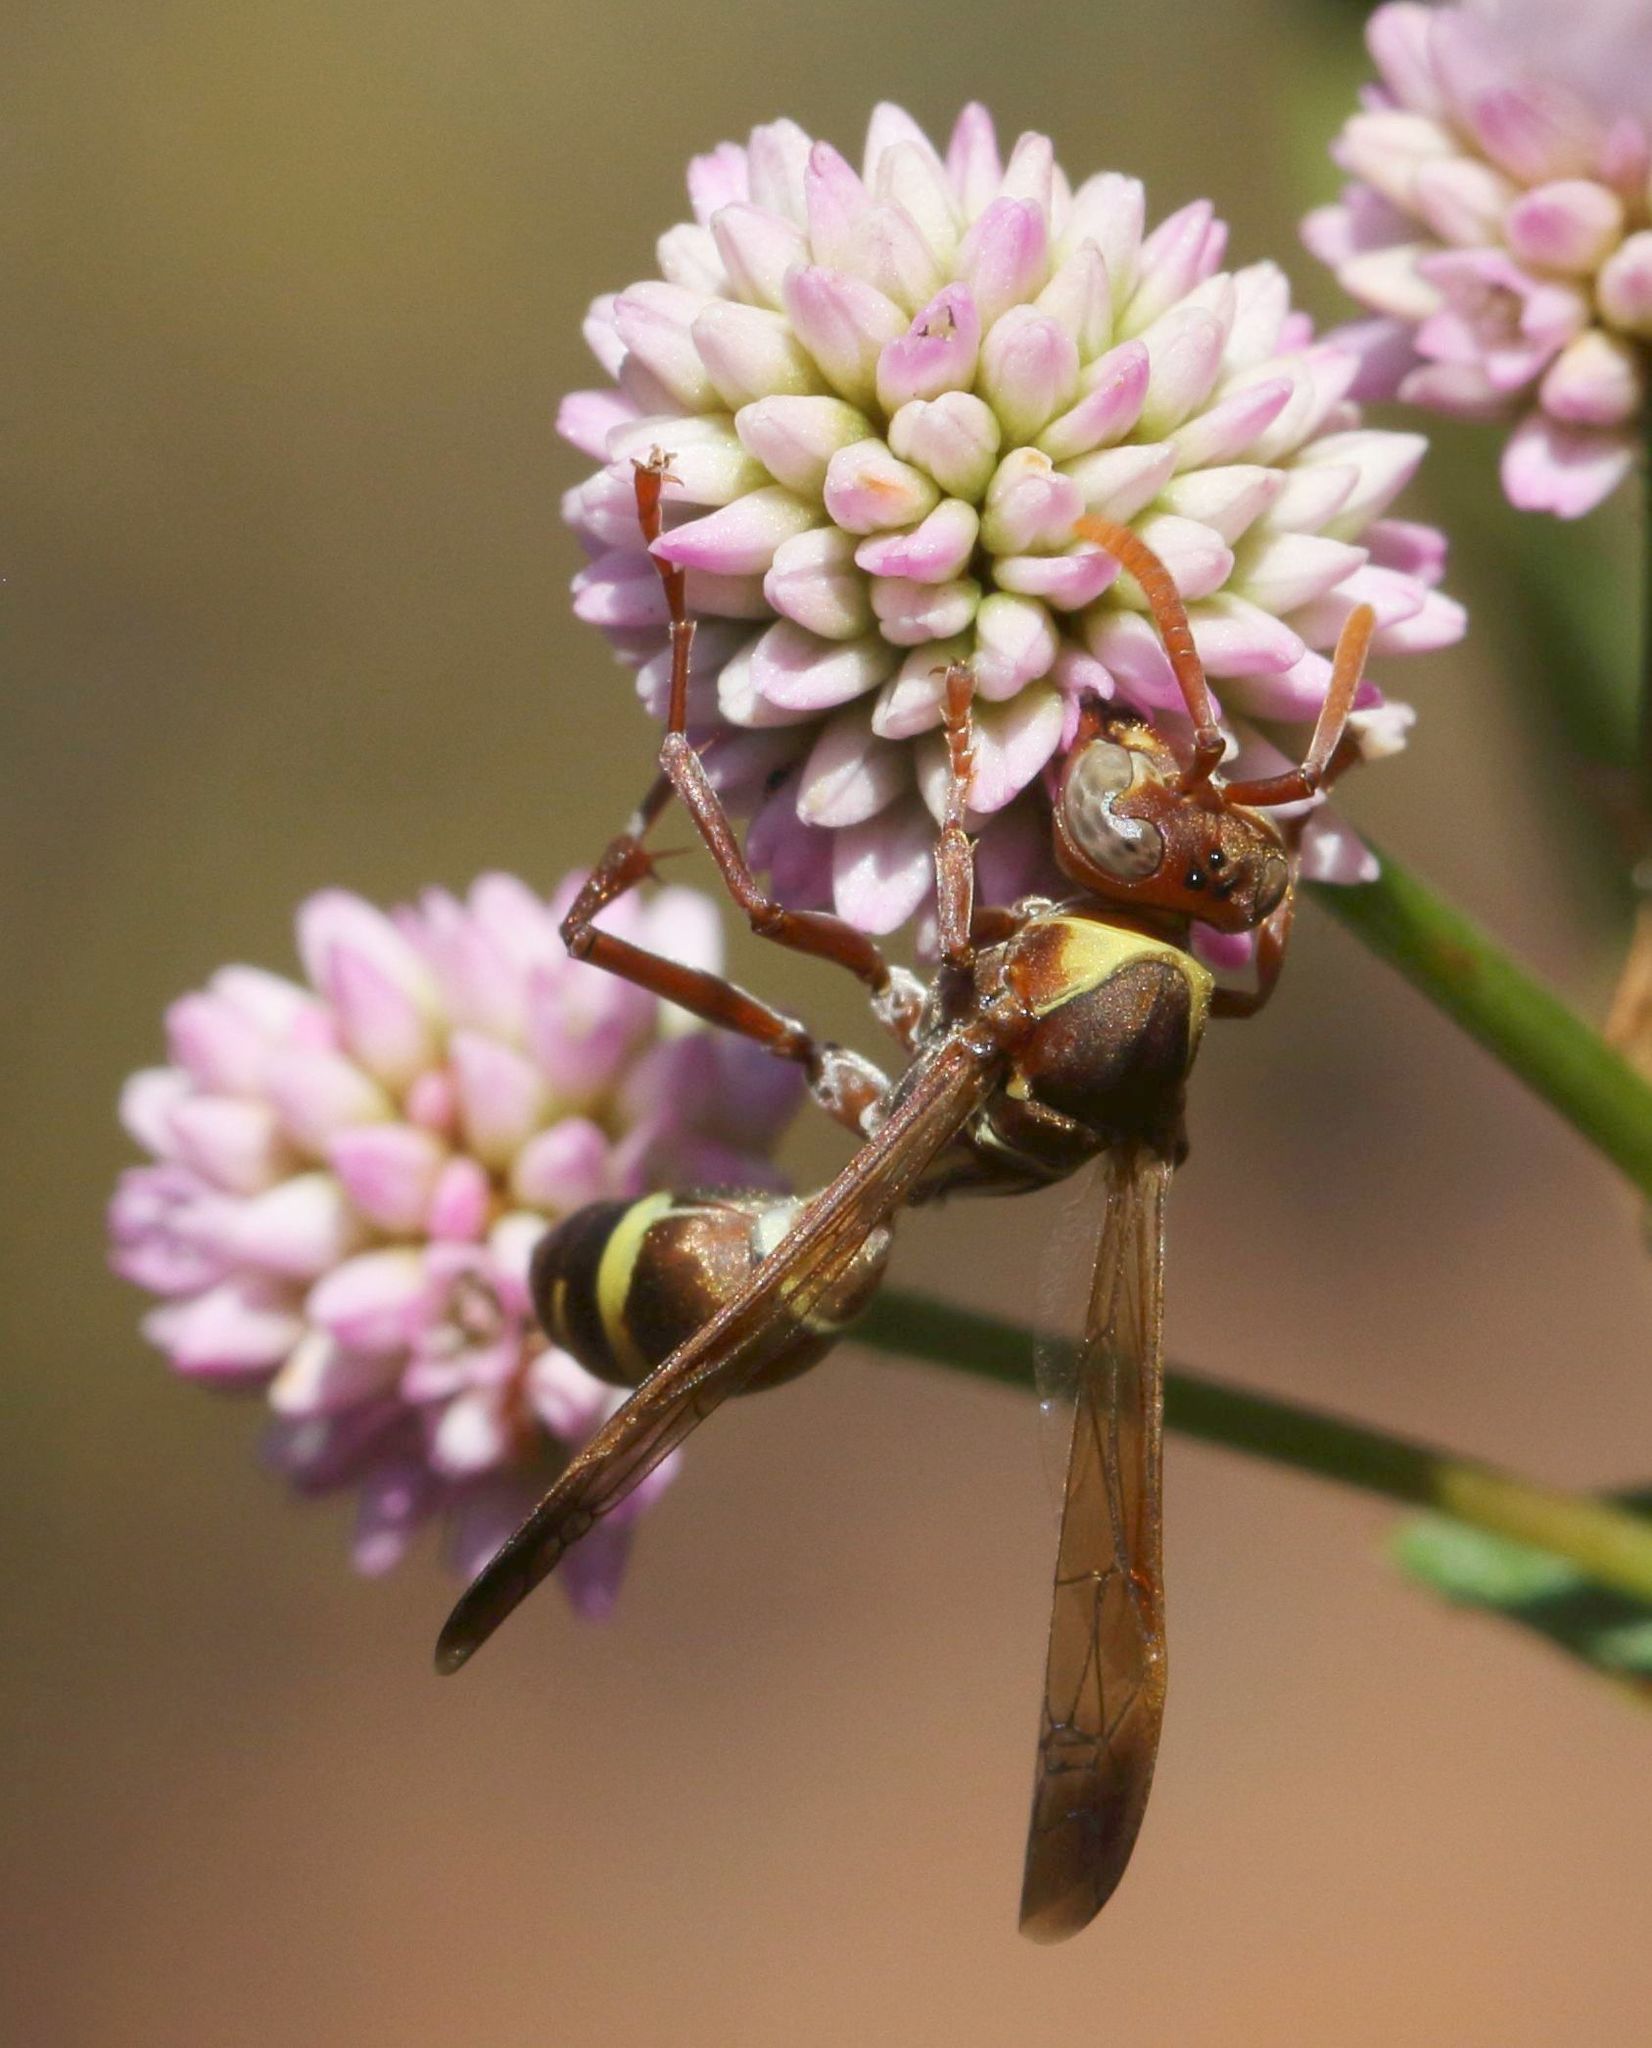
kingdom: Animalia
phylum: Arthropoda
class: Insecta
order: Hymenoptera
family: Eumenidae
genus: Polistes
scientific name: Polistes badius
